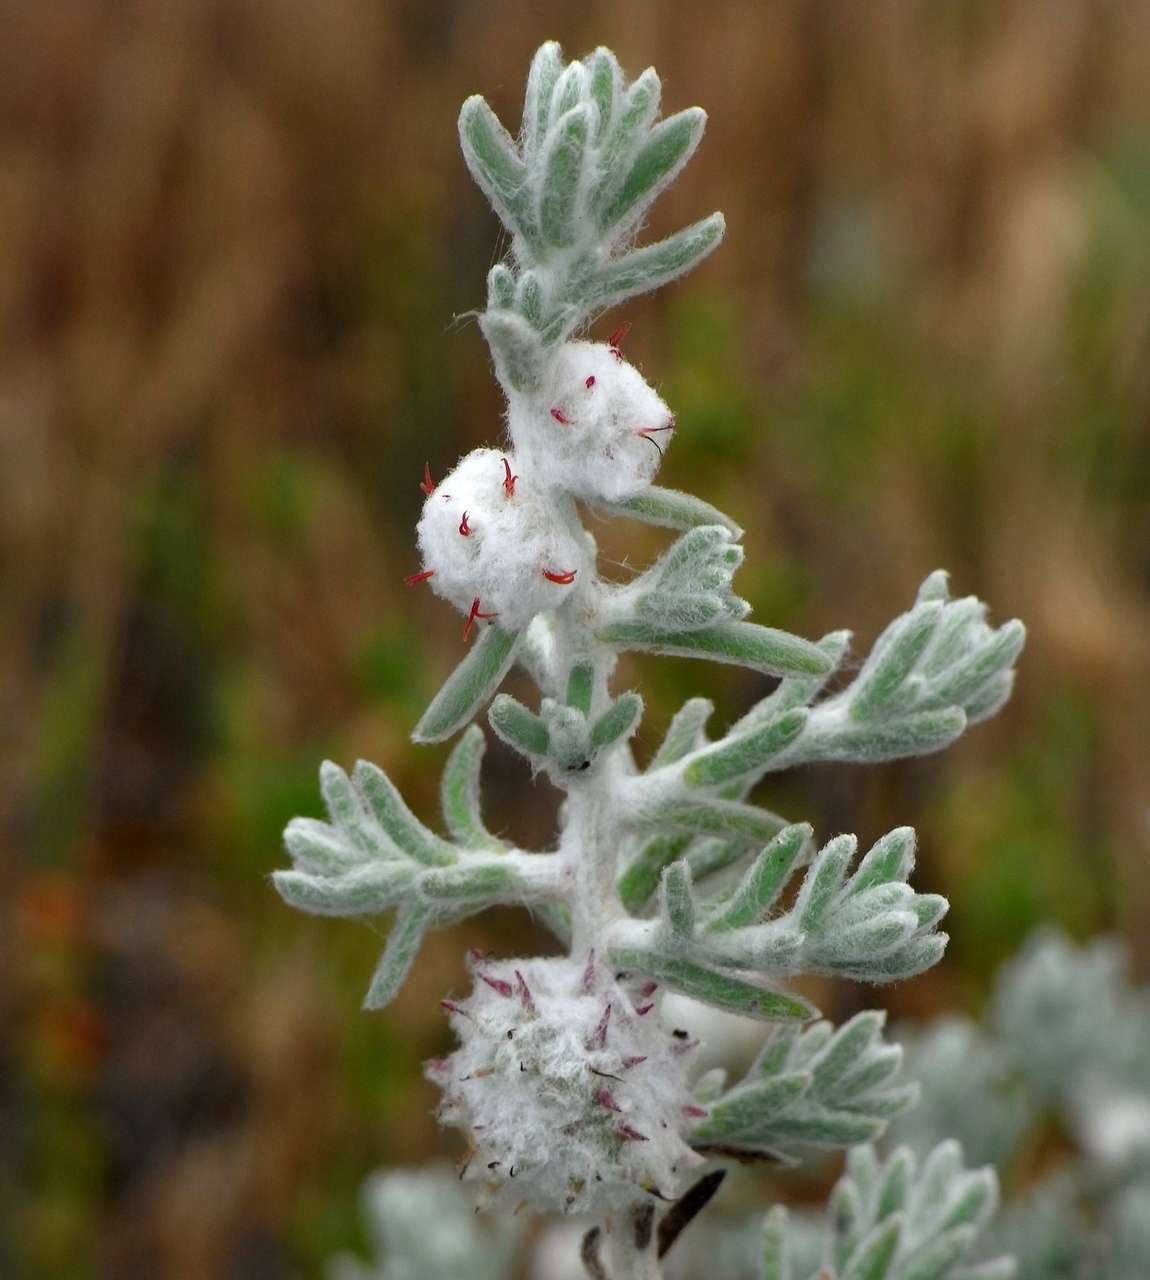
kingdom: Plantae
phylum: Tracheophyta
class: Magnoliopsida
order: Caryophyllales
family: Amaranthaceae
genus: Dissocarpus
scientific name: Dissocarpus paradoxus
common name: Bur-saltbush
